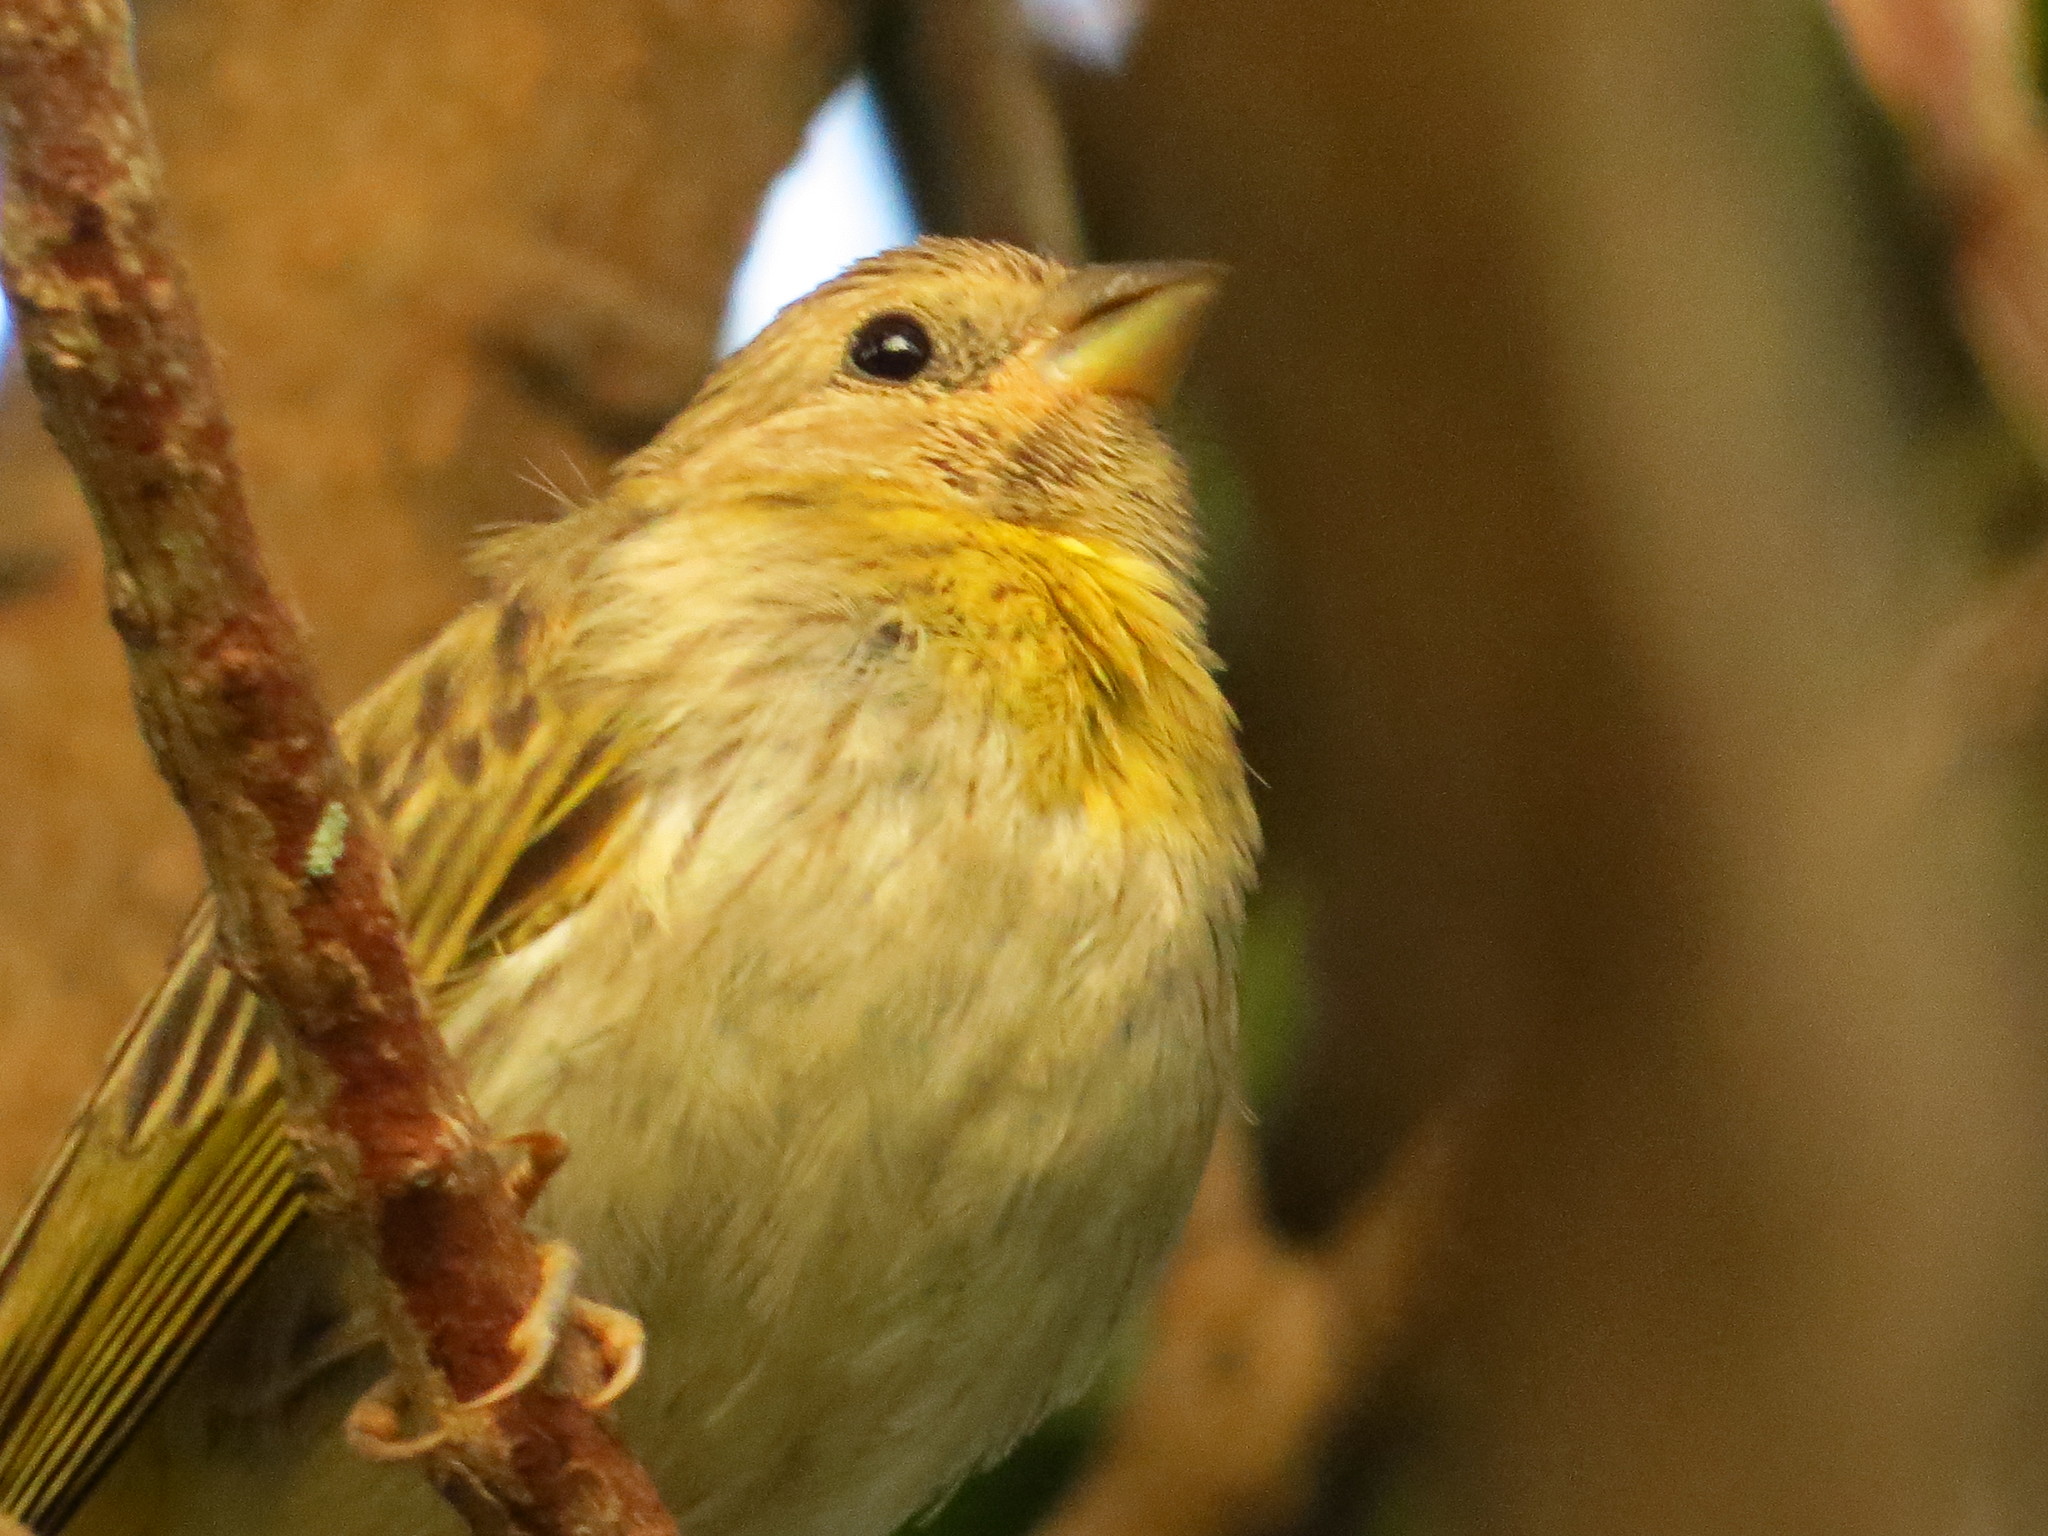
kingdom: Animalia
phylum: Chordata
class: Aves
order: Passeriformes
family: Thraupidae
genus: Sicalis
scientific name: Sicalis flaveola
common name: Saffron finch
